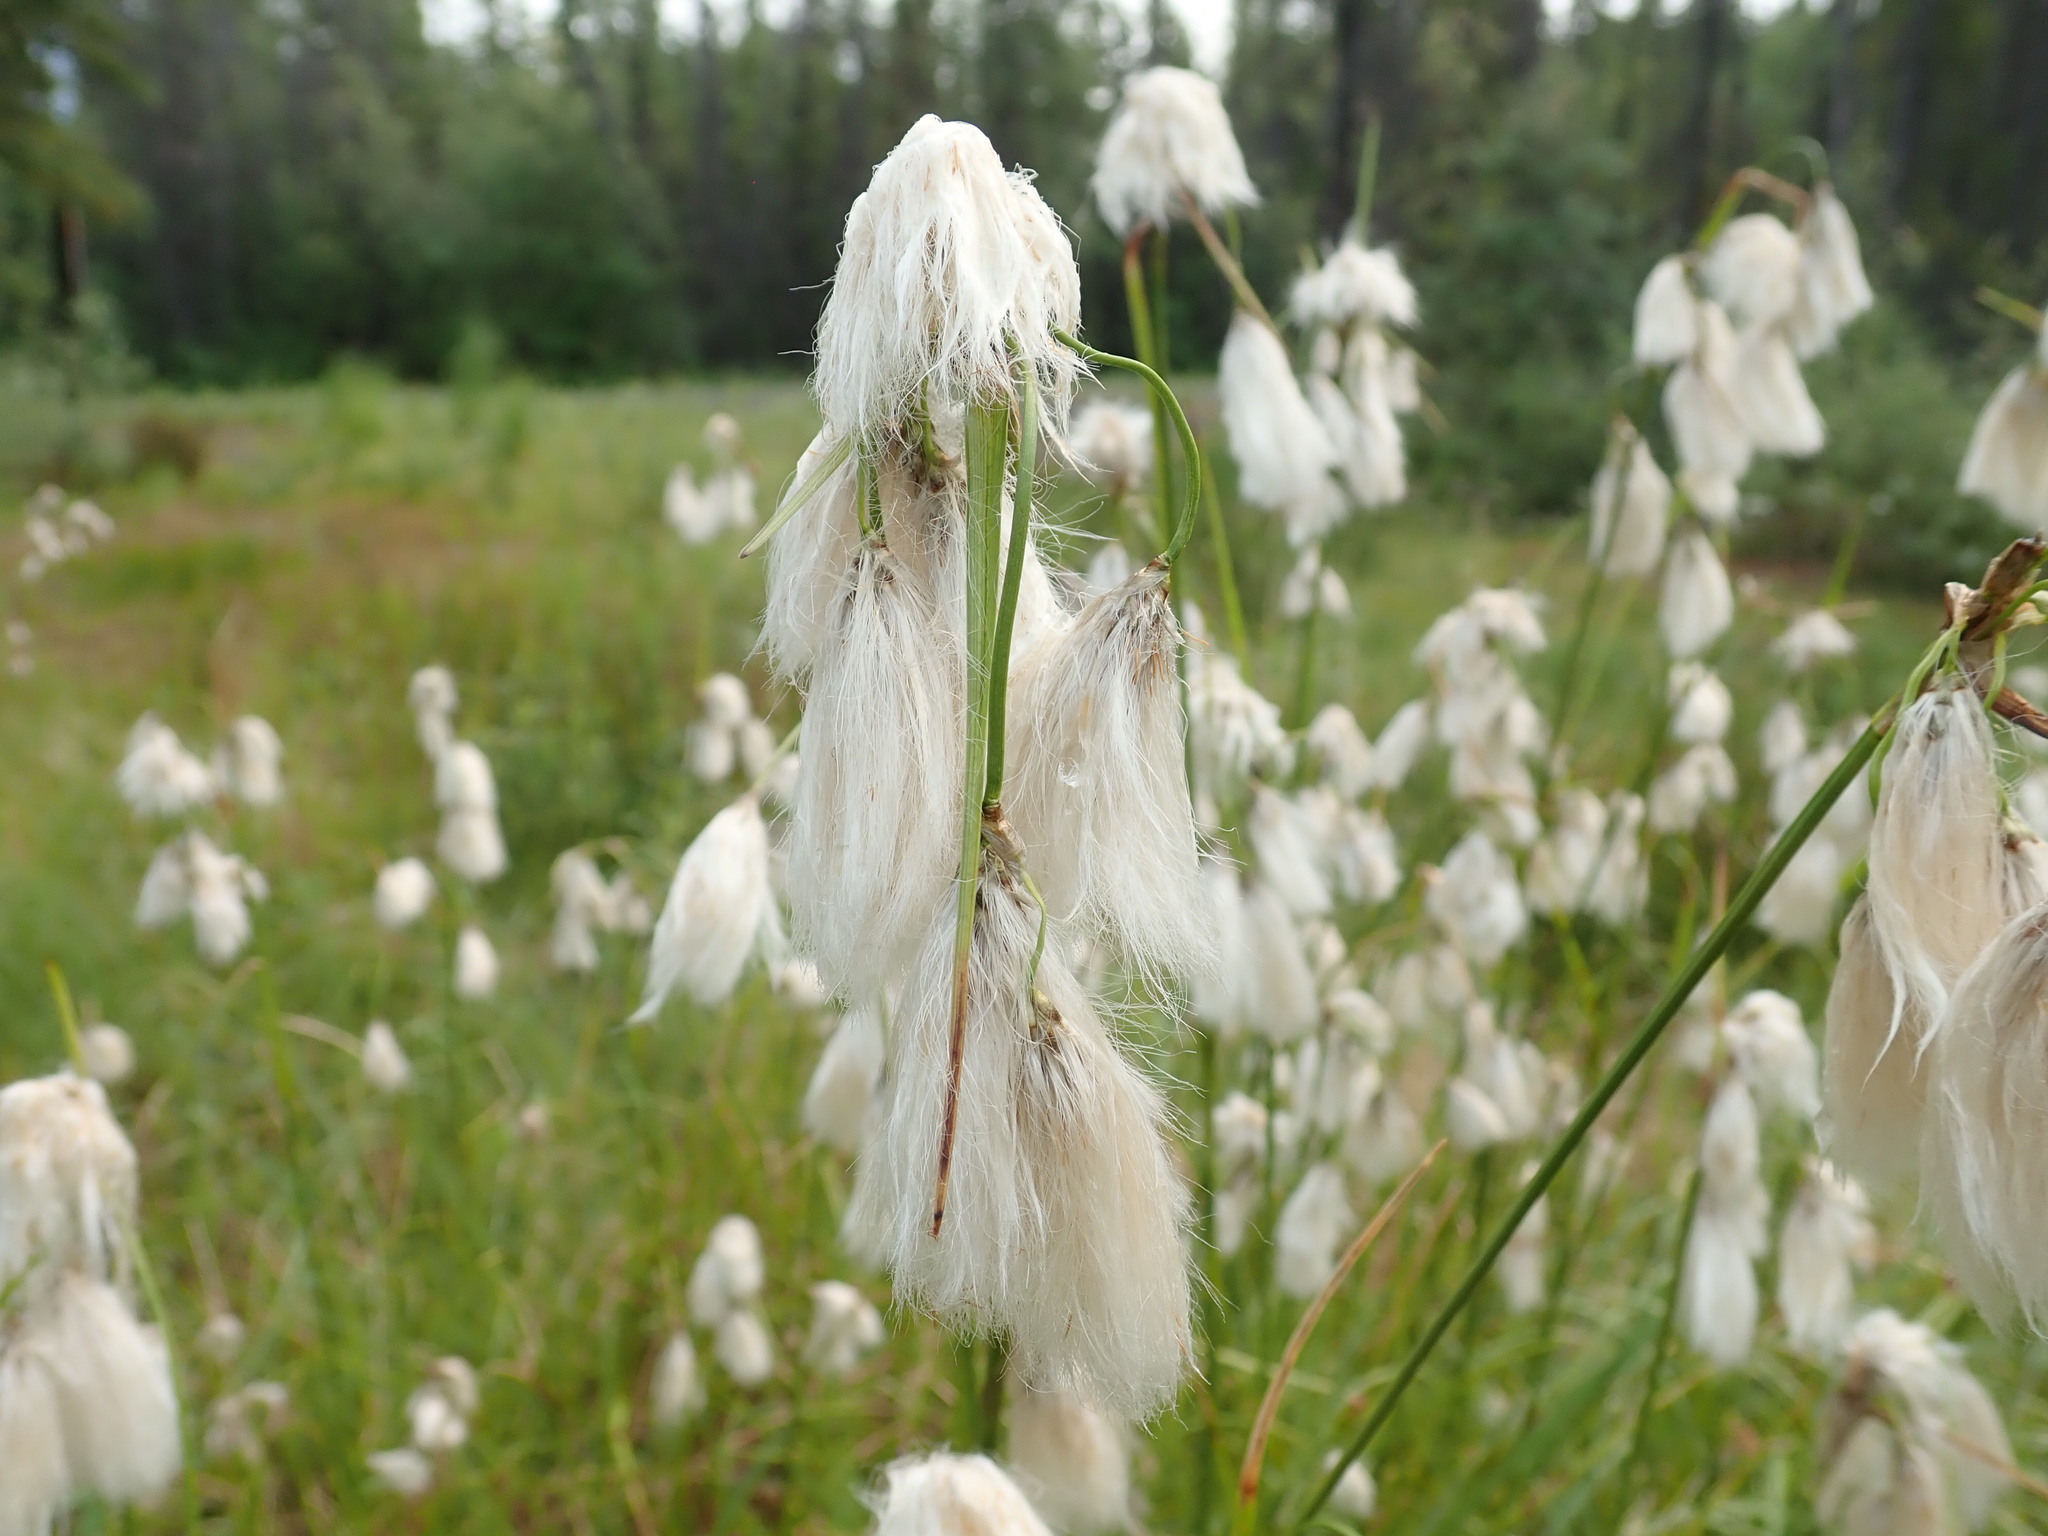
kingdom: Plantae
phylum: Tracheophyta
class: Liliopsida
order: Poales
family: Cyperaceae
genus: Eriophorum
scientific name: Eriophorum viridicarinatum
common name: Green-keeled cottongrass
